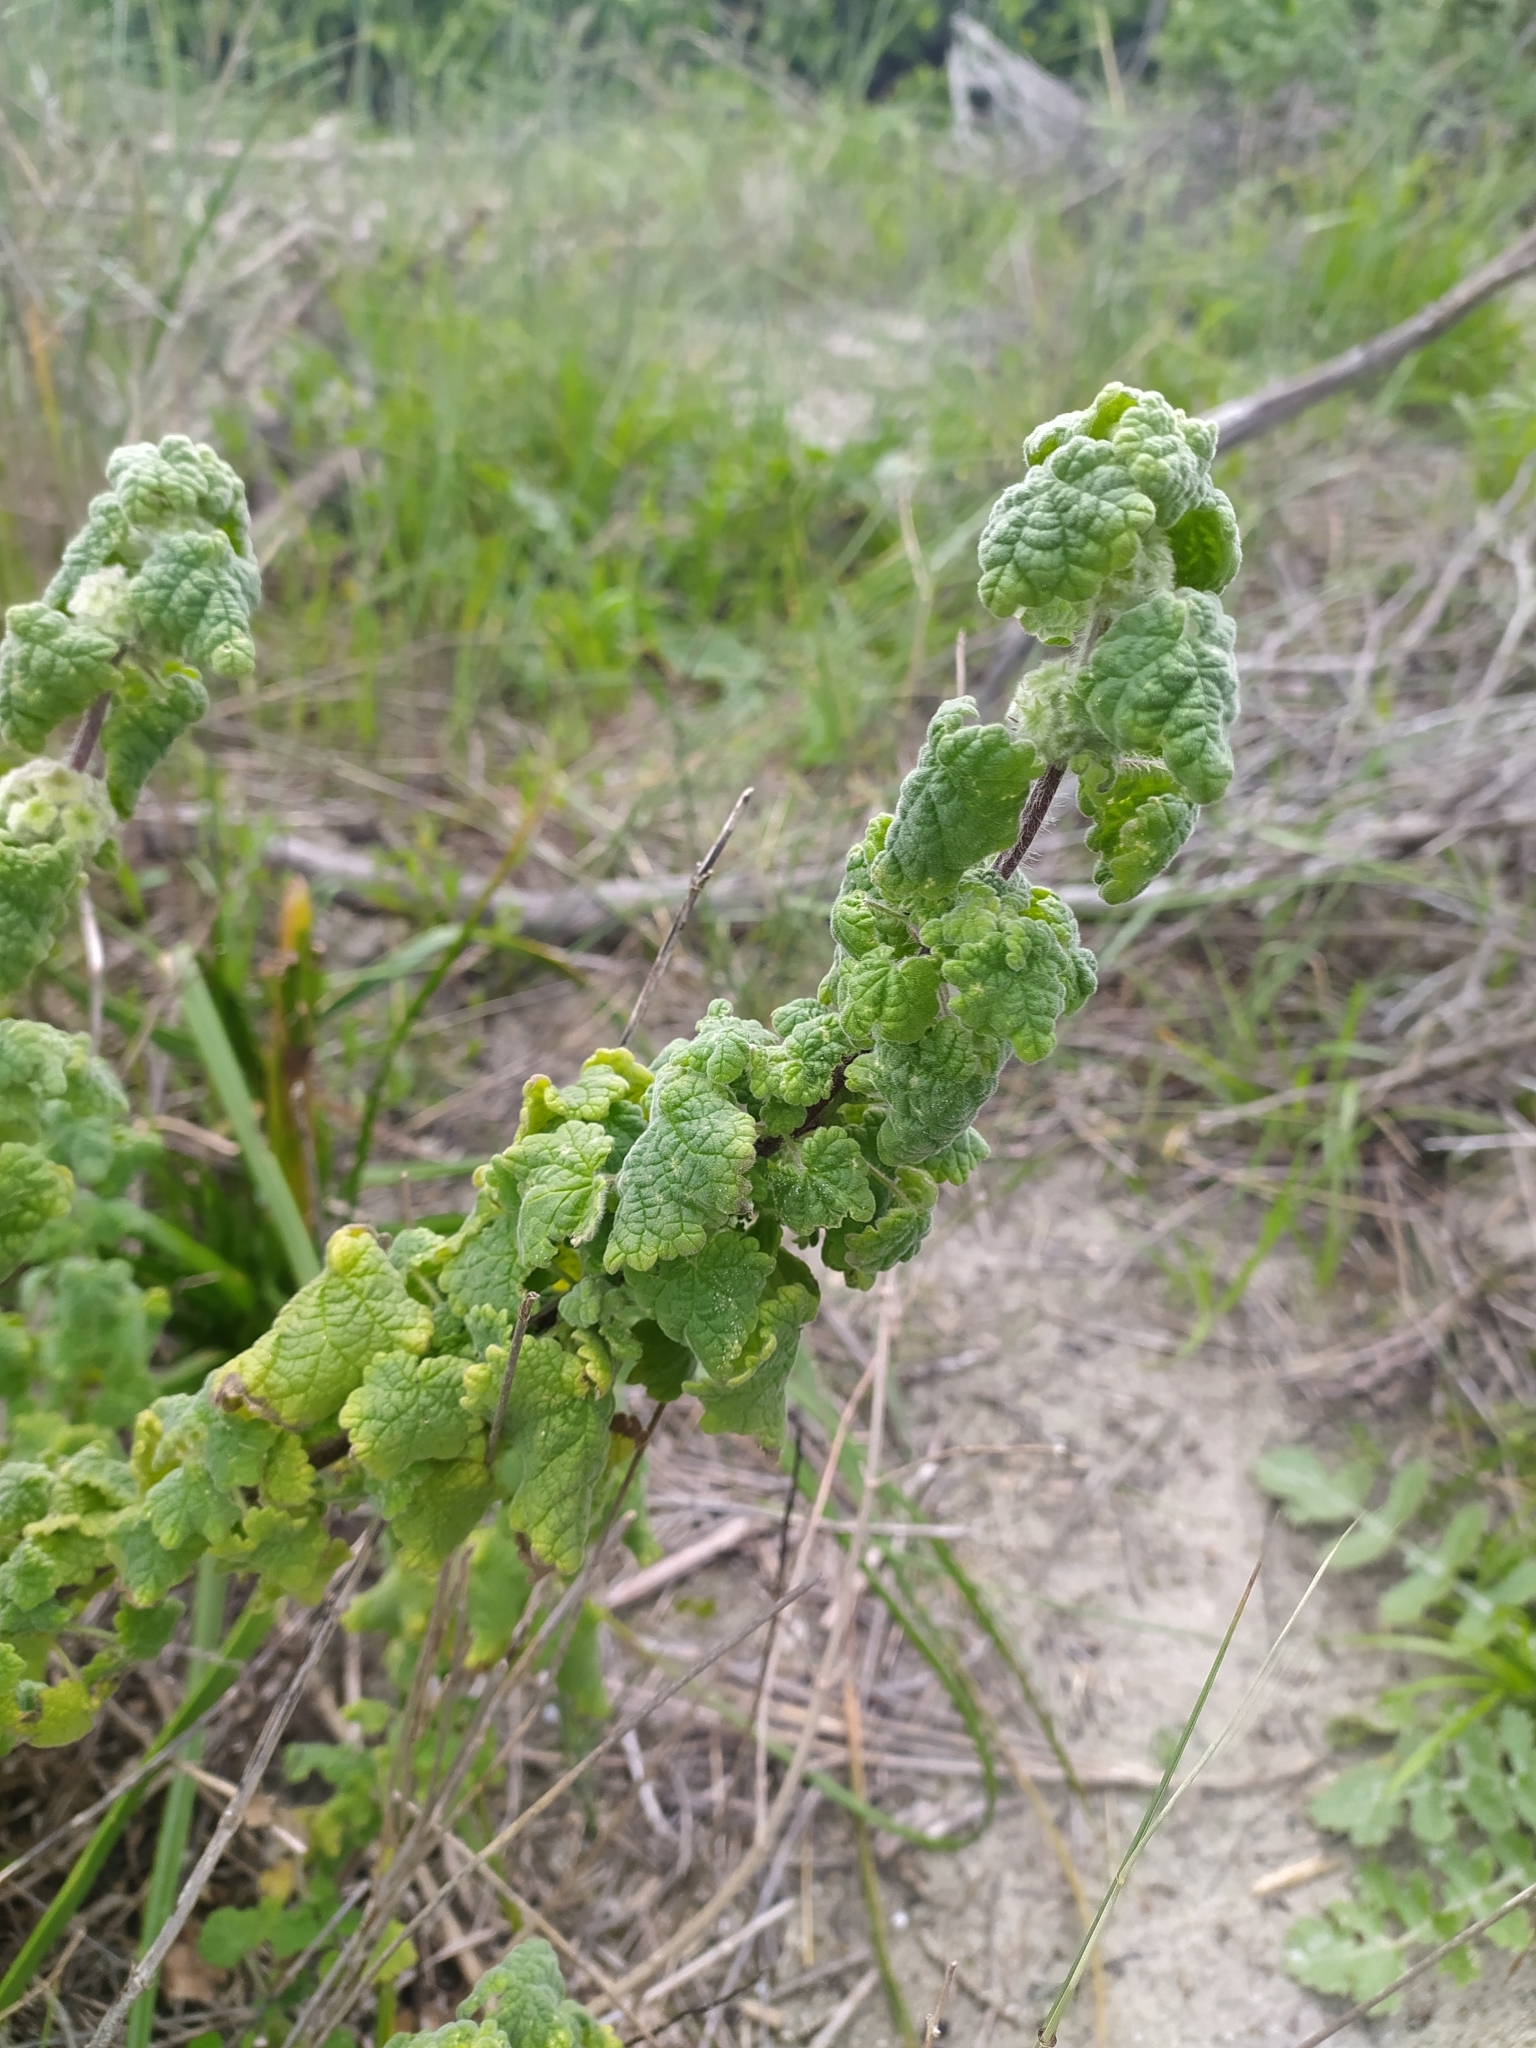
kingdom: Plantae
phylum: Tracheophyta
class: Magnoliopsida
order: Lamiales
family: Lamiaceae
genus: Pseudodictamnus
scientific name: Pseudodictamnus africanus
